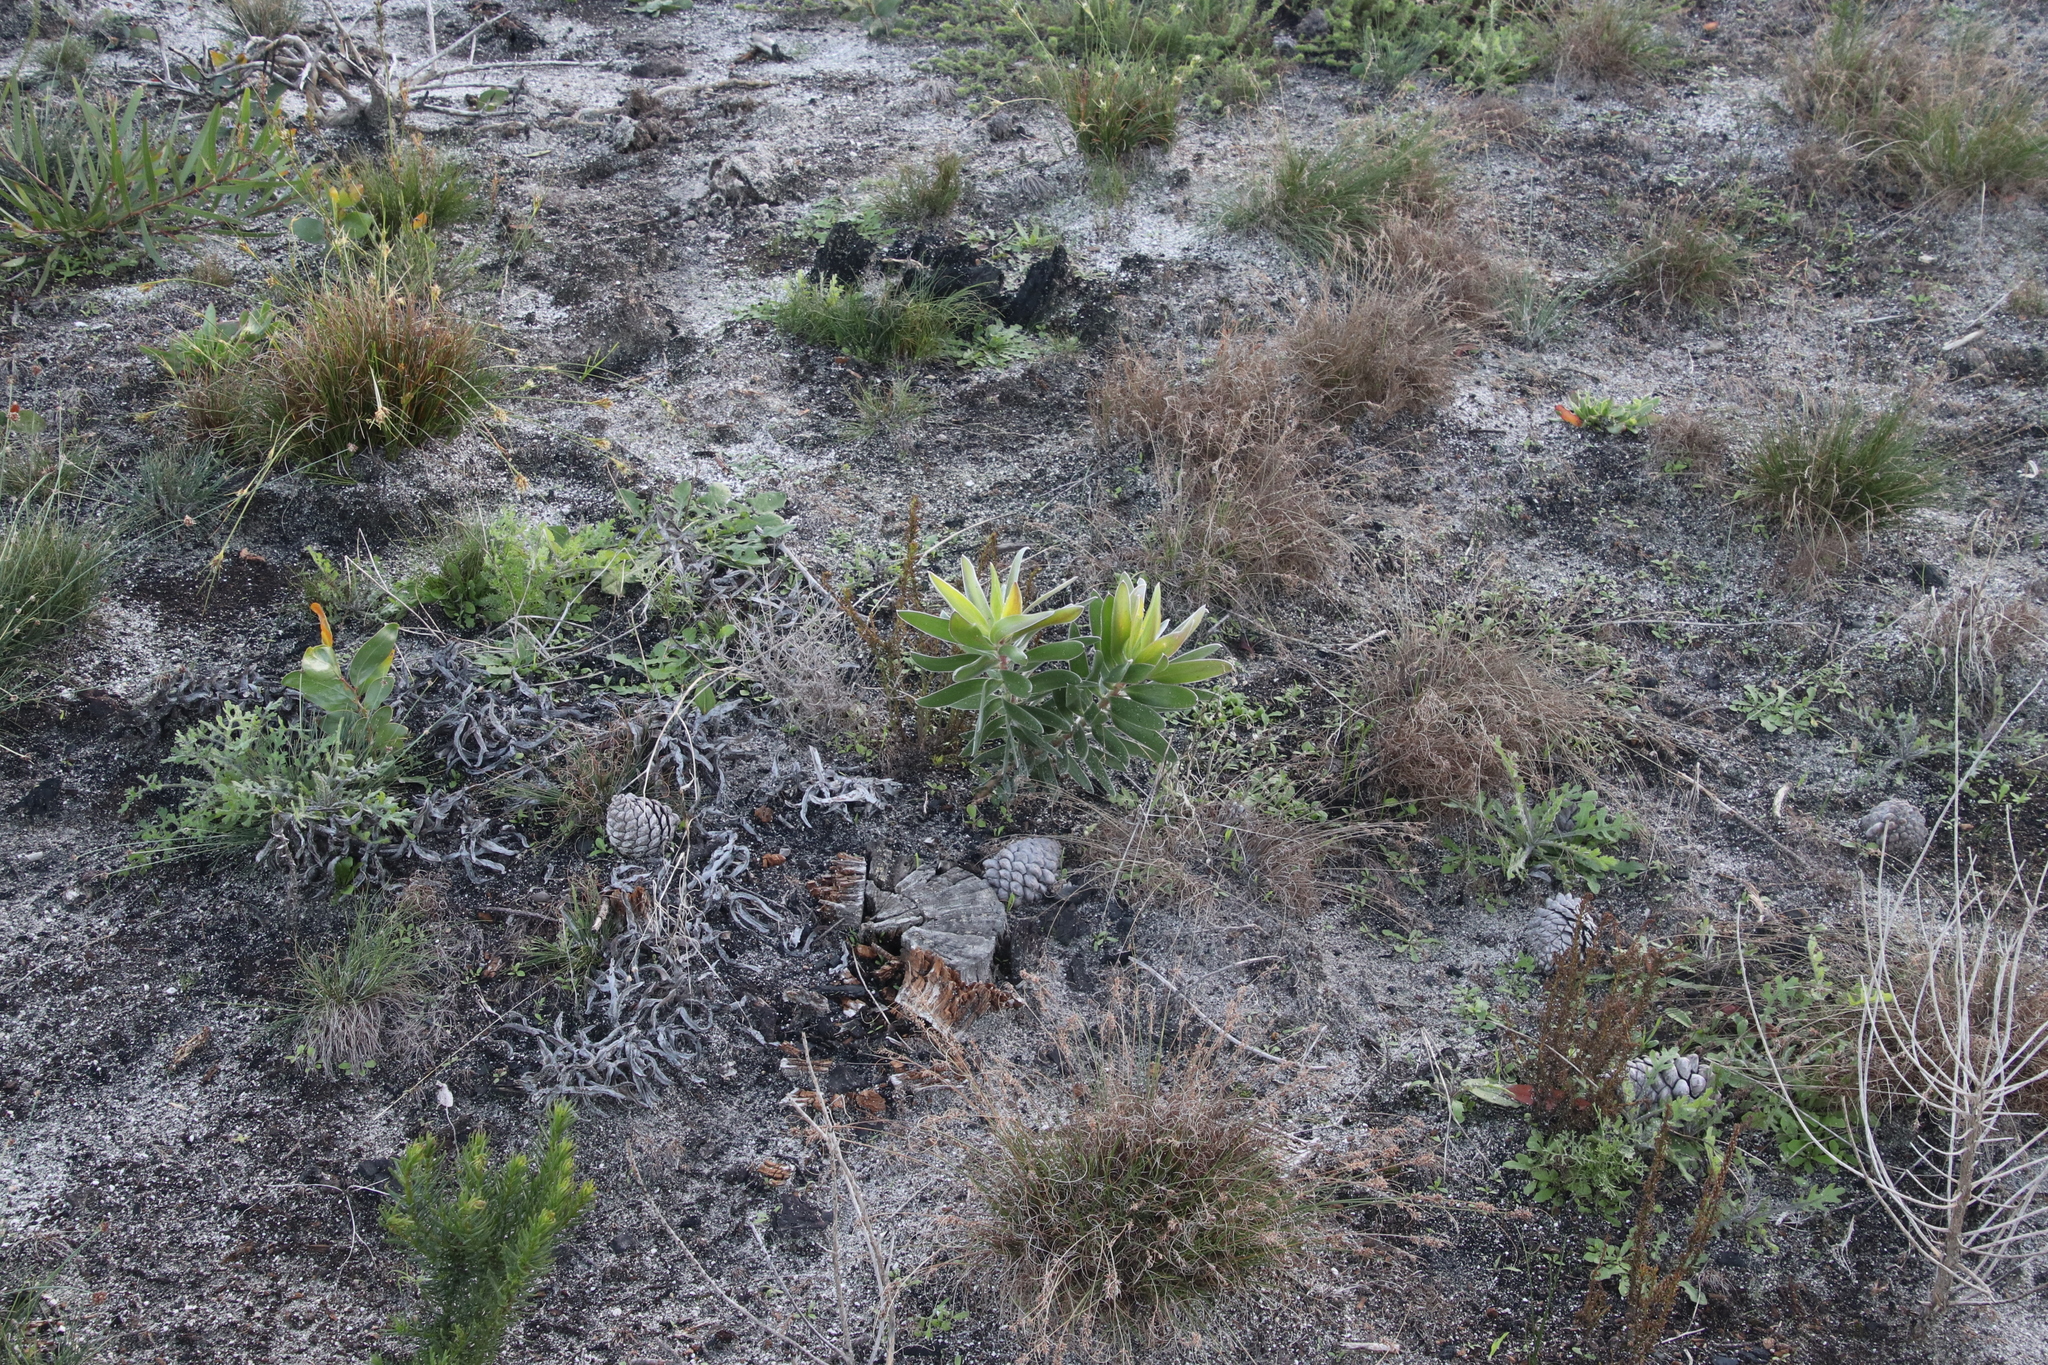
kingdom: Plantae
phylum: Tracheophyta
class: Magnoliopsida
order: Proteales
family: Proteaceae
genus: Leucadendron
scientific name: Leucadendron laureolum
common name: Golden sunshinebush
